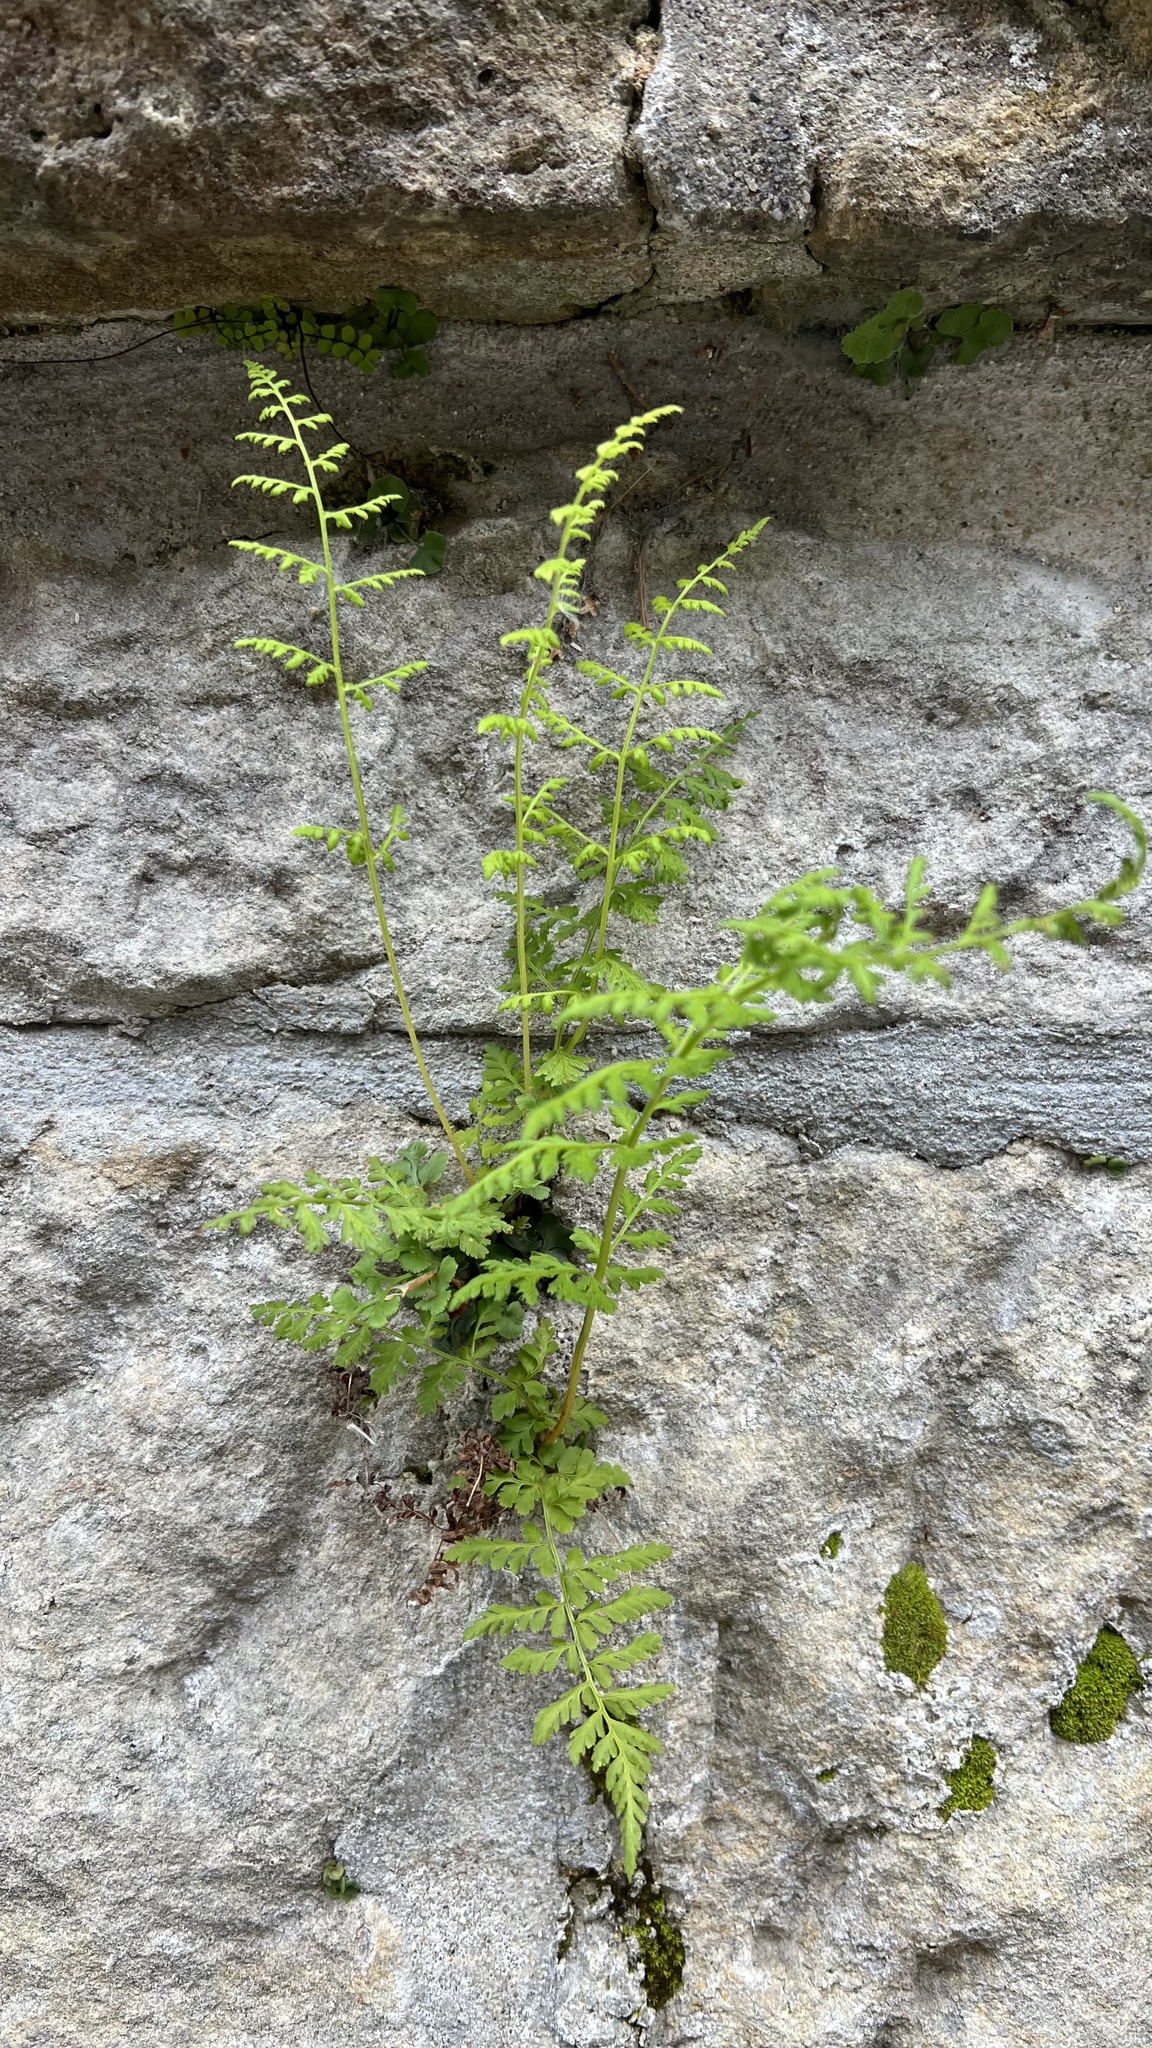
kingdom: Plantae
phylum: Tracheophyta
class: Polypodiopsida
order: Polypodiales
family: Cystopteridaceae
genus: Cystopteris
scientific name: Cystopteris fragilis
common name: Brittle bladder fern
